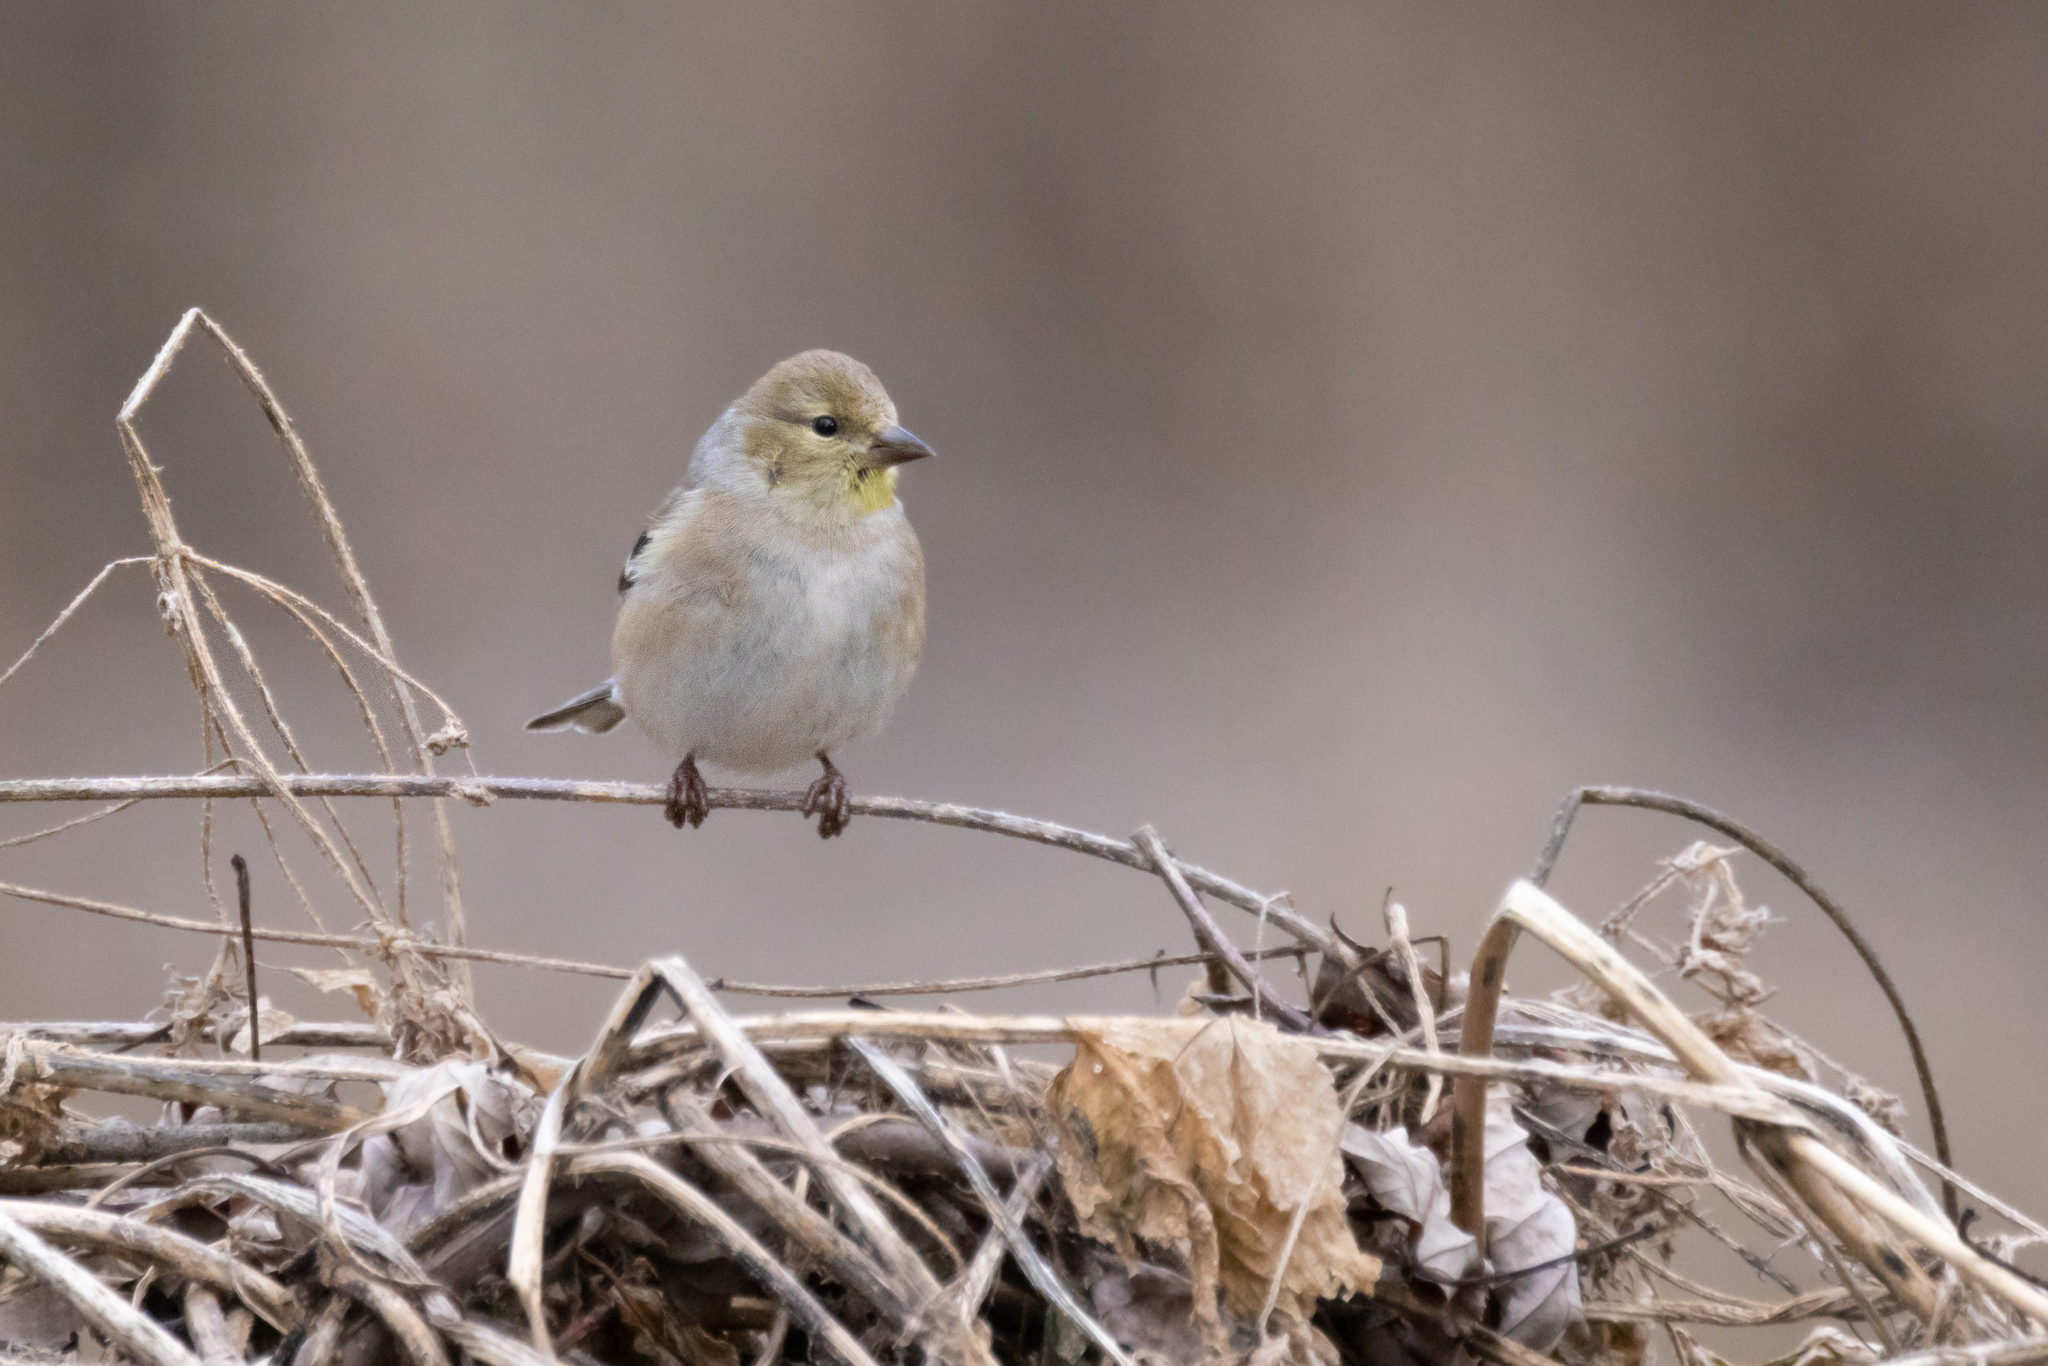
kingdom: Animalia
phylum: Chordata
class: Aves
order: Passeriformes
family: Fringillidae
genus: Spinus
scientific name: Spinus tristis
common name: American goldfinch
